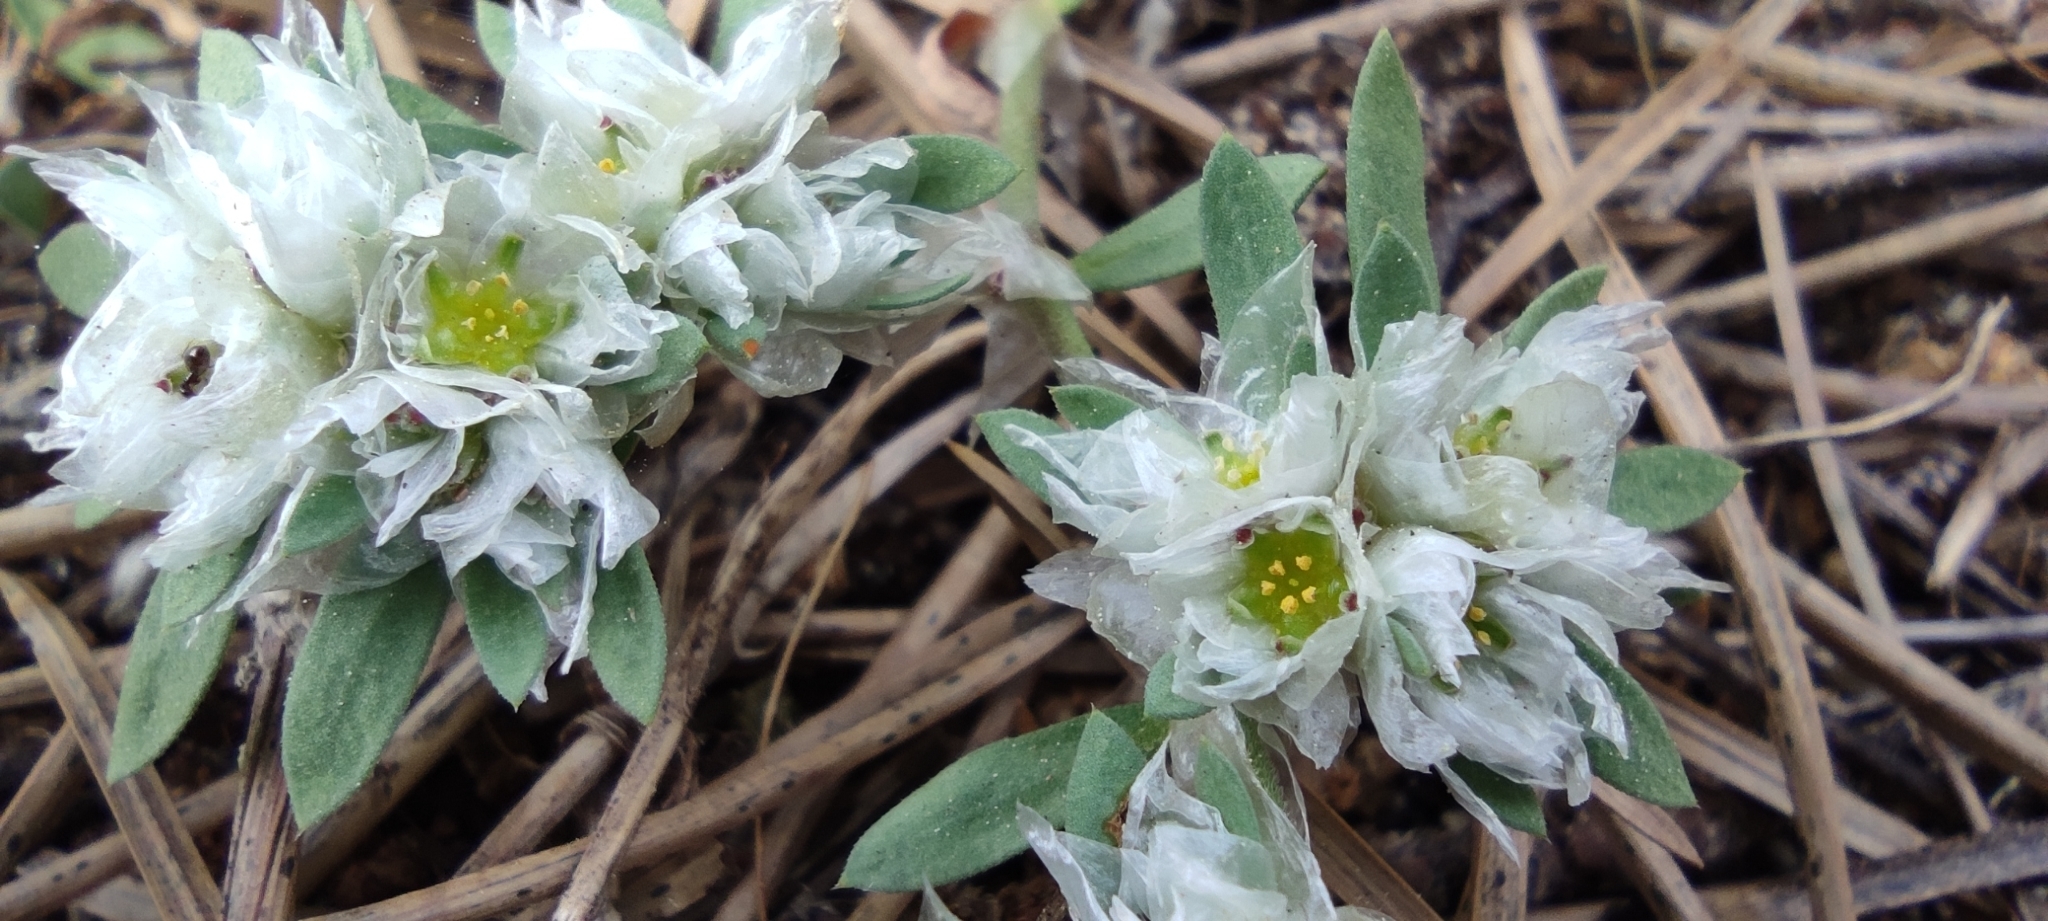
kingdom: Plantae
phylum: Tracheophyta
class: Magnoliopsida
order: Caryophyllales
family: Caryophyllaceae
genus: Paronychia
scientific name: Paronychia argentea
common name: Silver nailroot
